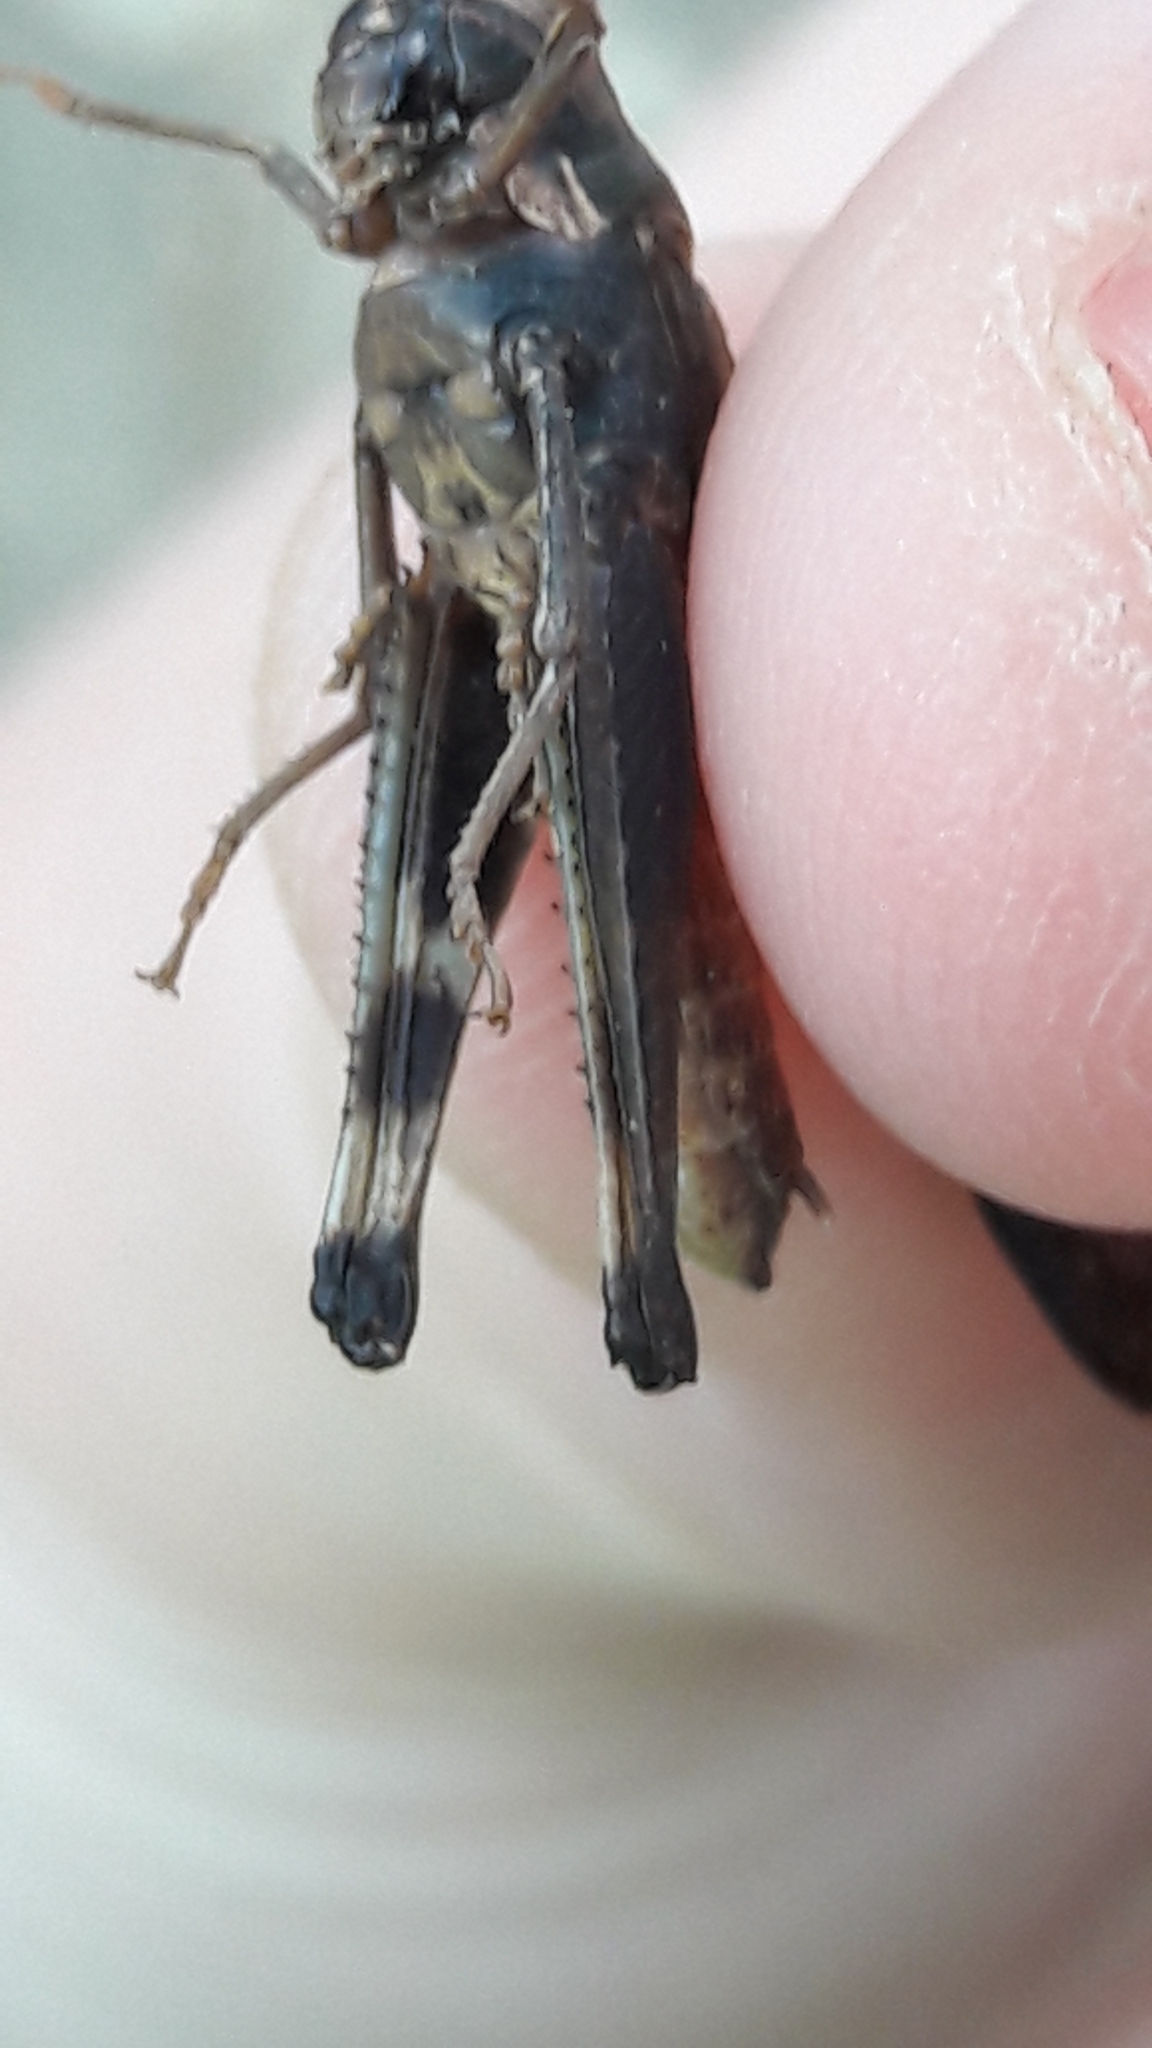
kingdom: Animalia
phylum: Arthropoda
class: Insecta
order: Orthoptera
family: Acrididae
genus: Morphacris
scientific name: Morphacris fasciata
